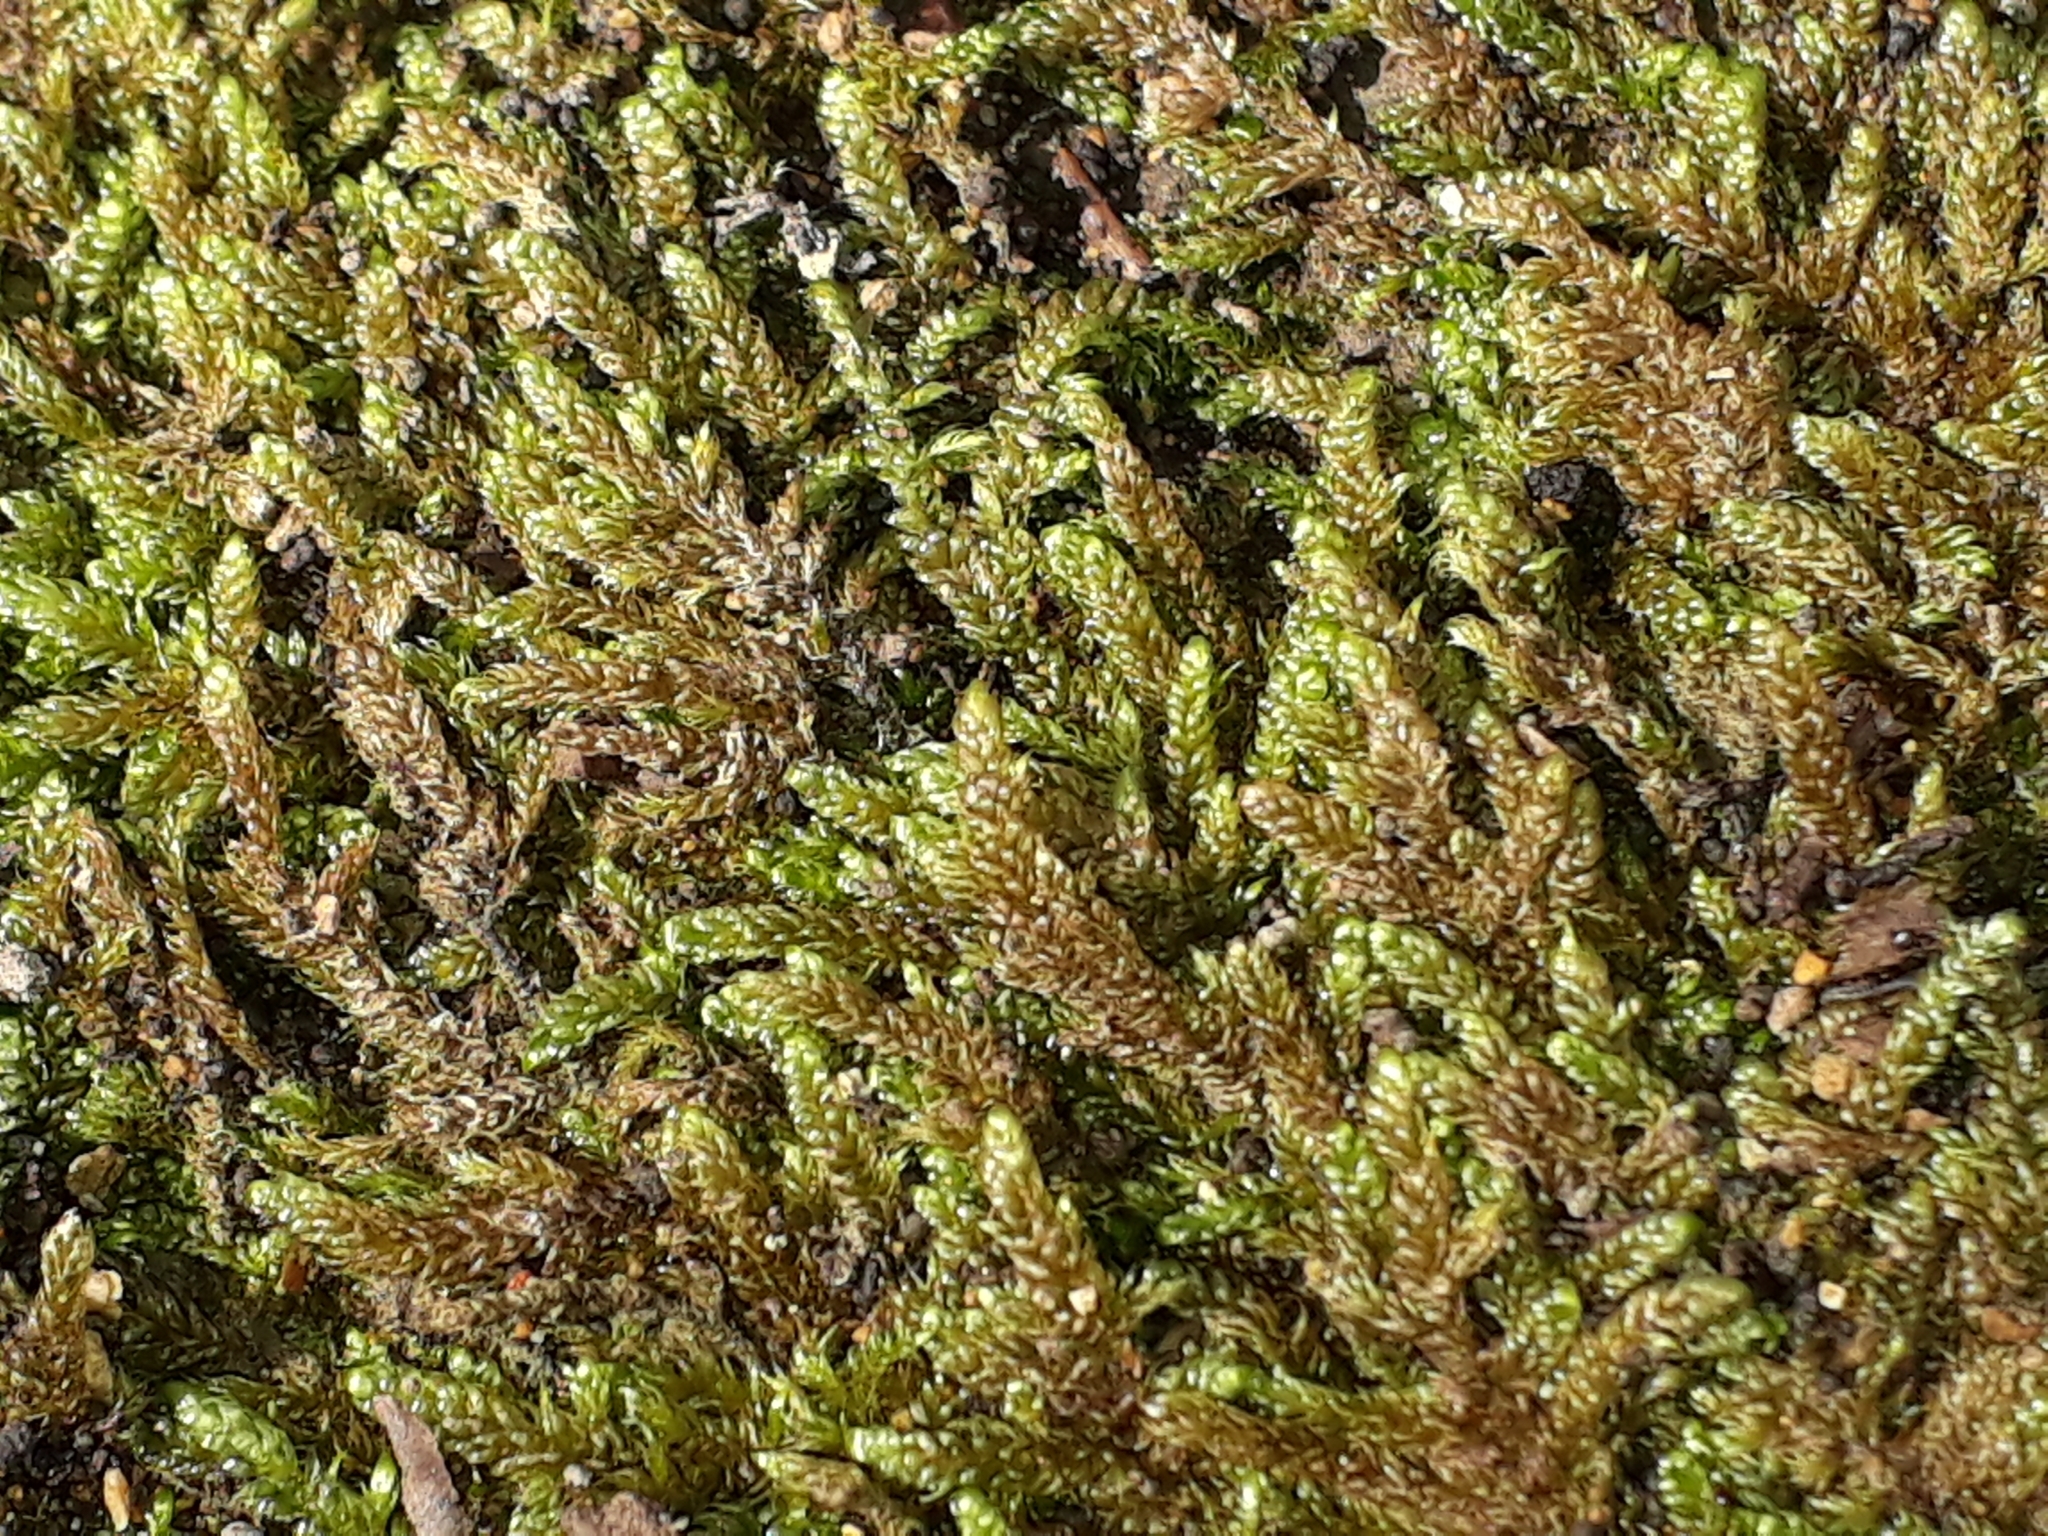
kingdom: Plantae
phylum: Bryophyta
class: Bryopsida
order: Hypnales
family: Hypnaceae
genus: Hypnum
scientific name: Hypnum cupressiforme
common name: Cypress-leaved plait-moss
